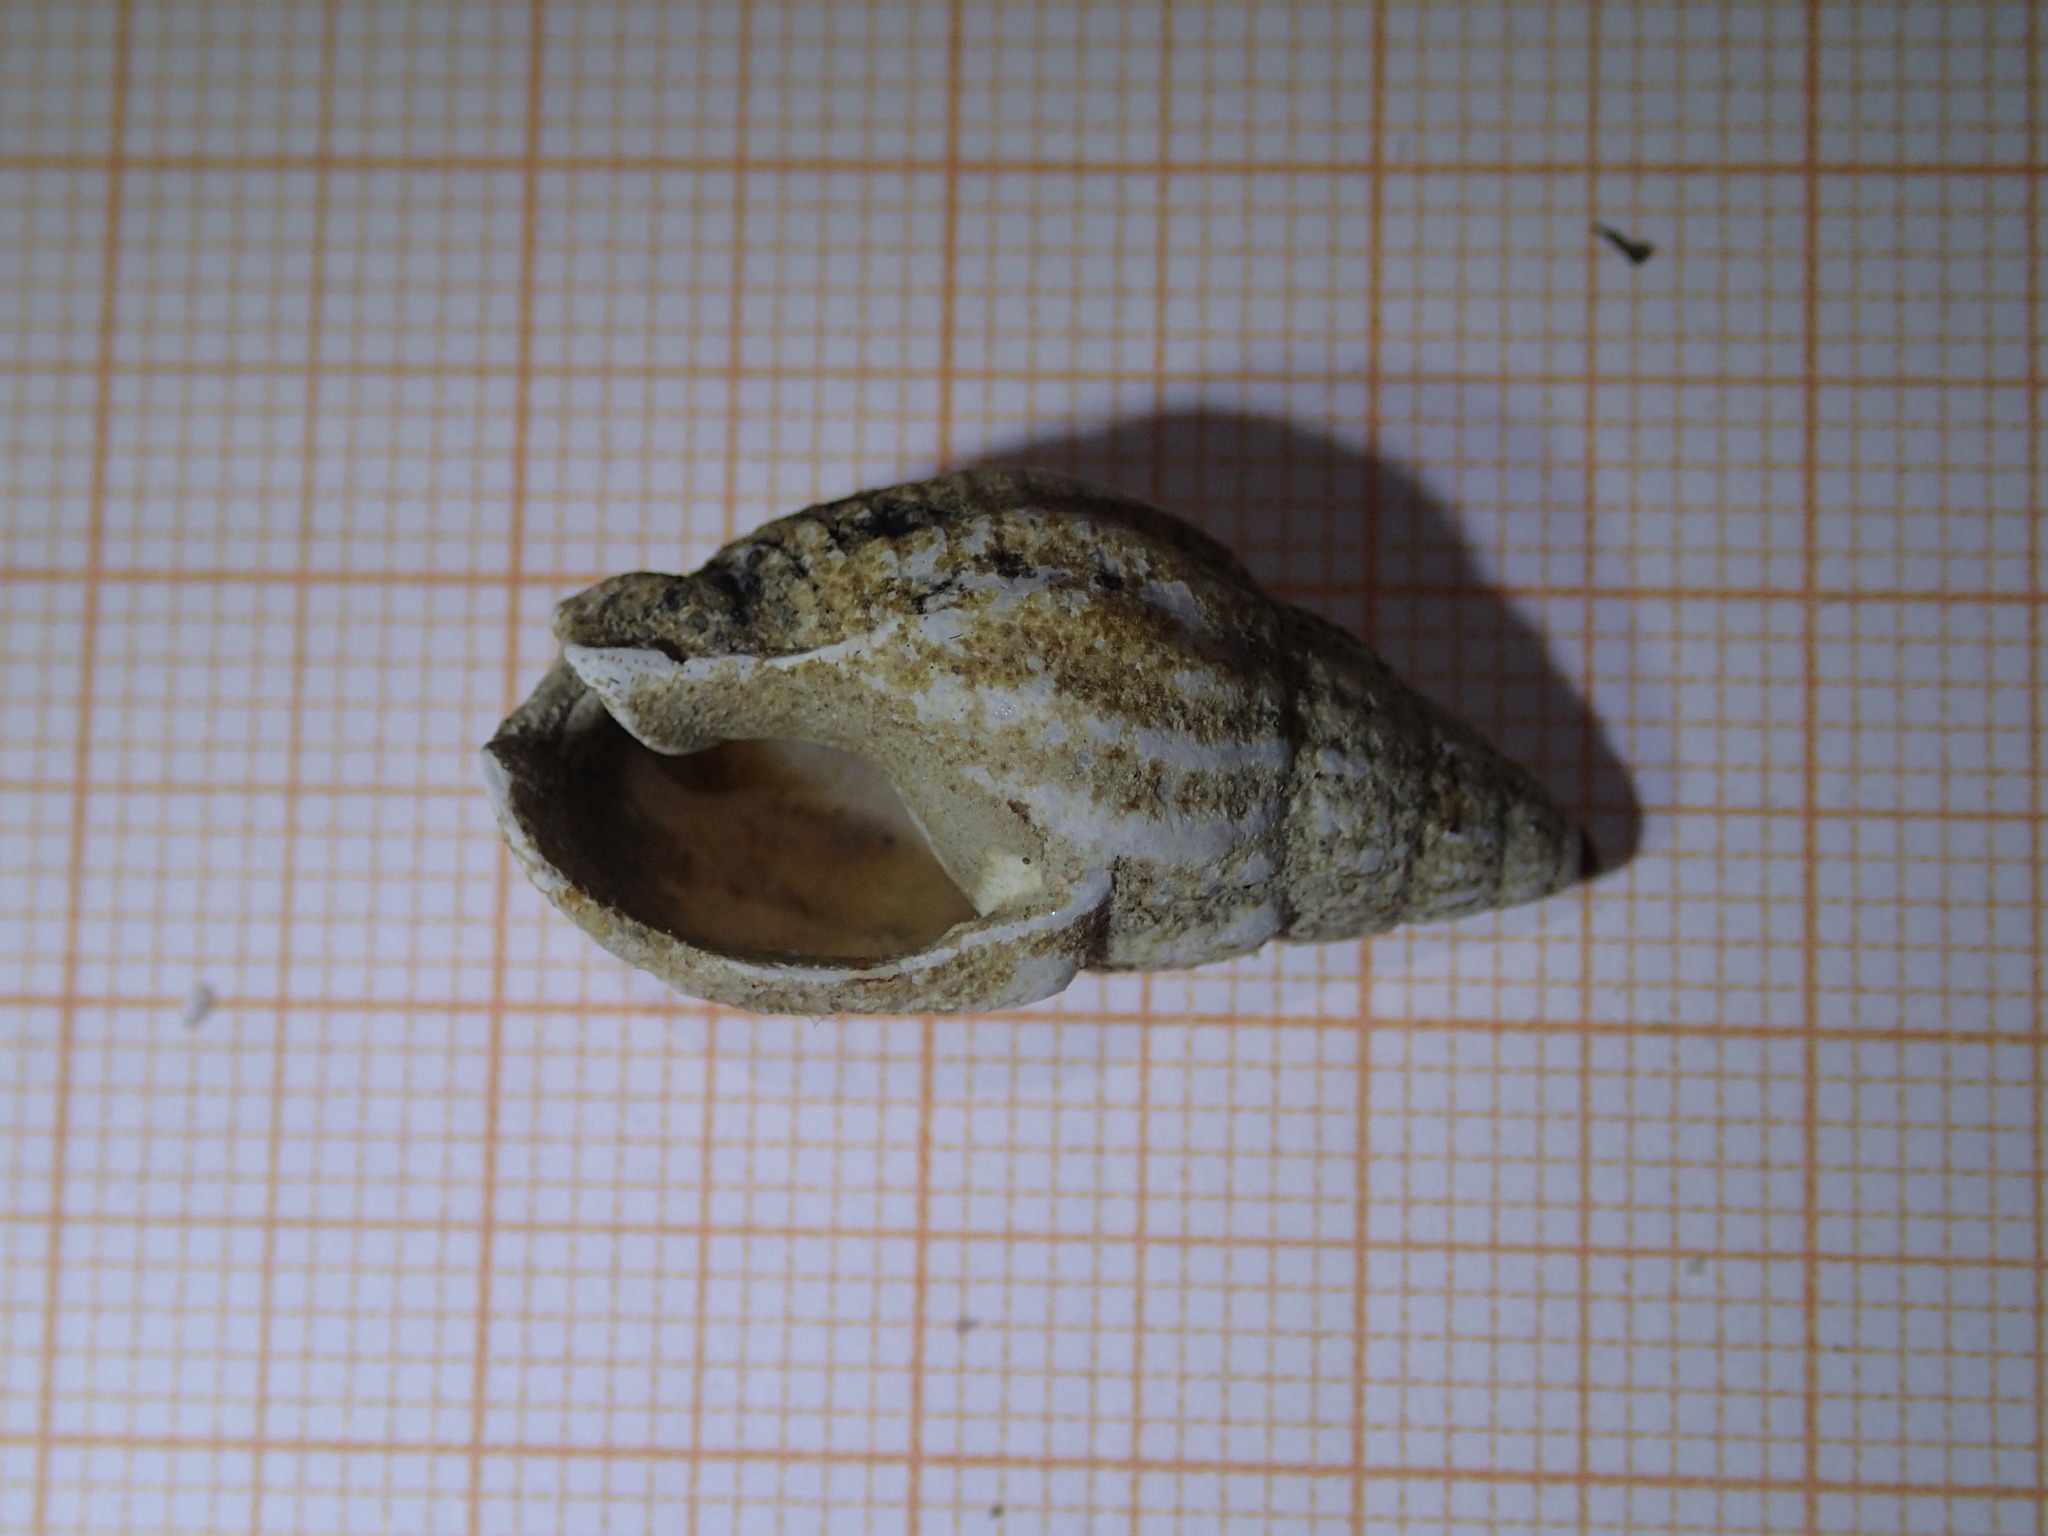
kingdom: Animalia
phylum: Mollusca
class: Gastropoda
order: Neogastropoda
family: Nassariidae
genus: Tritia
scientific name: Tritia nitida
